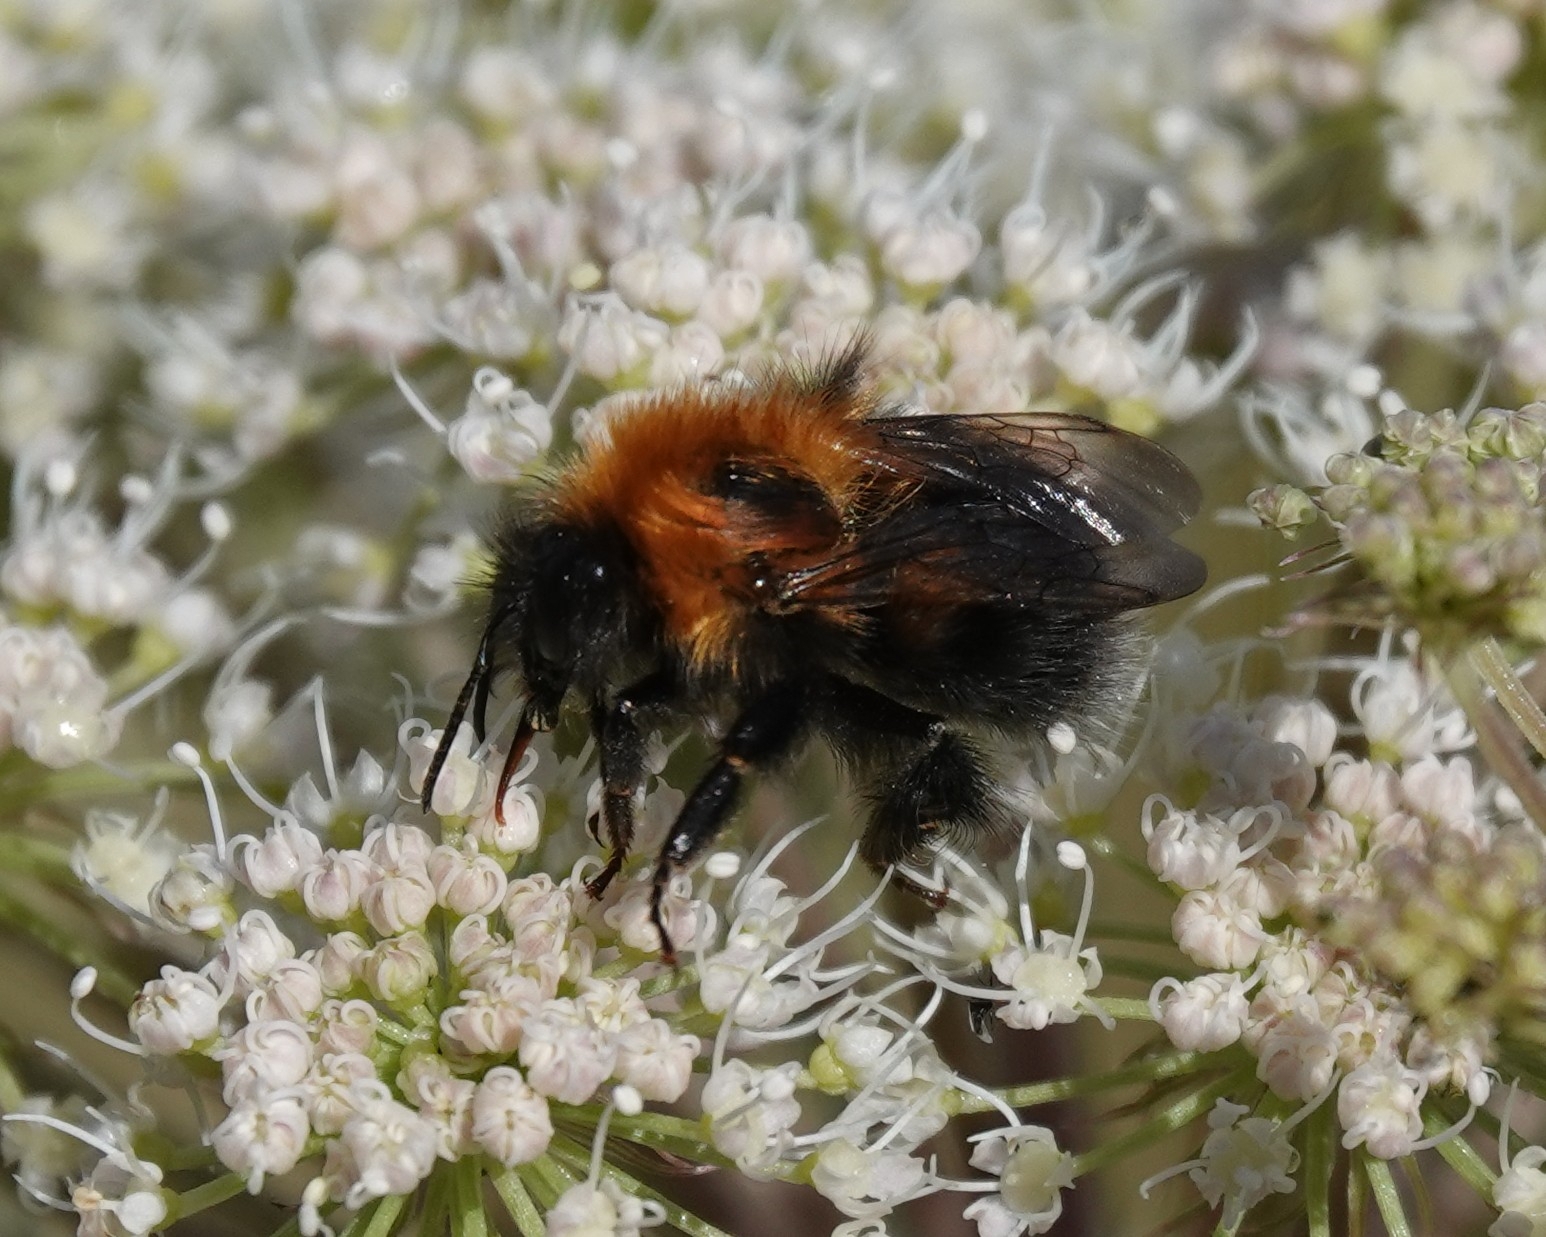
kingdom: Animalia
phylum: Arthropoda
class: Insecta
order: Hymenoptera
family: Apidae
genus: Bombus
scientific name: Bombus hypnorum
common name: New garden bumblebee
